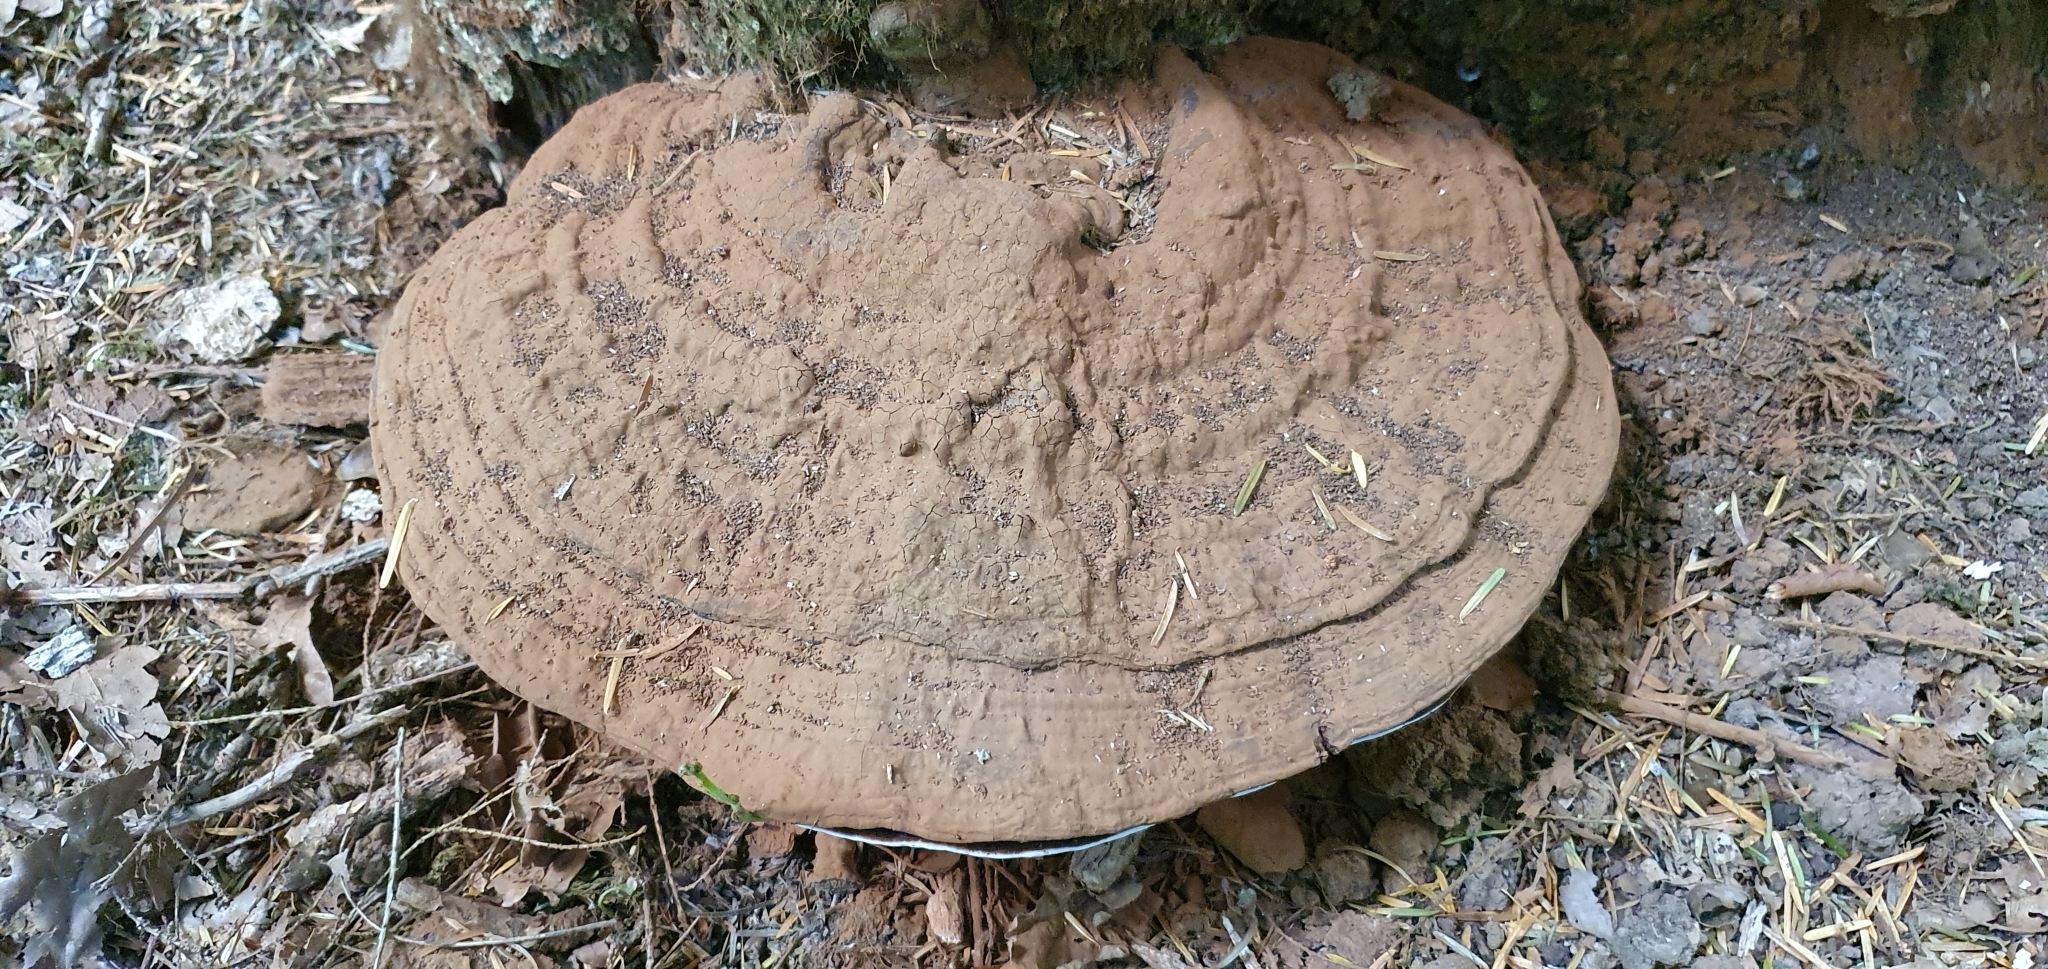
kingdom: Fungi
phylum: Basidiomycota
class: Agaricomycetes
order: Polyporales
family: Polyporaceae
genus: Ganoderma
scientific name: Ganoderma applanatum
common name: Artist's bracket
